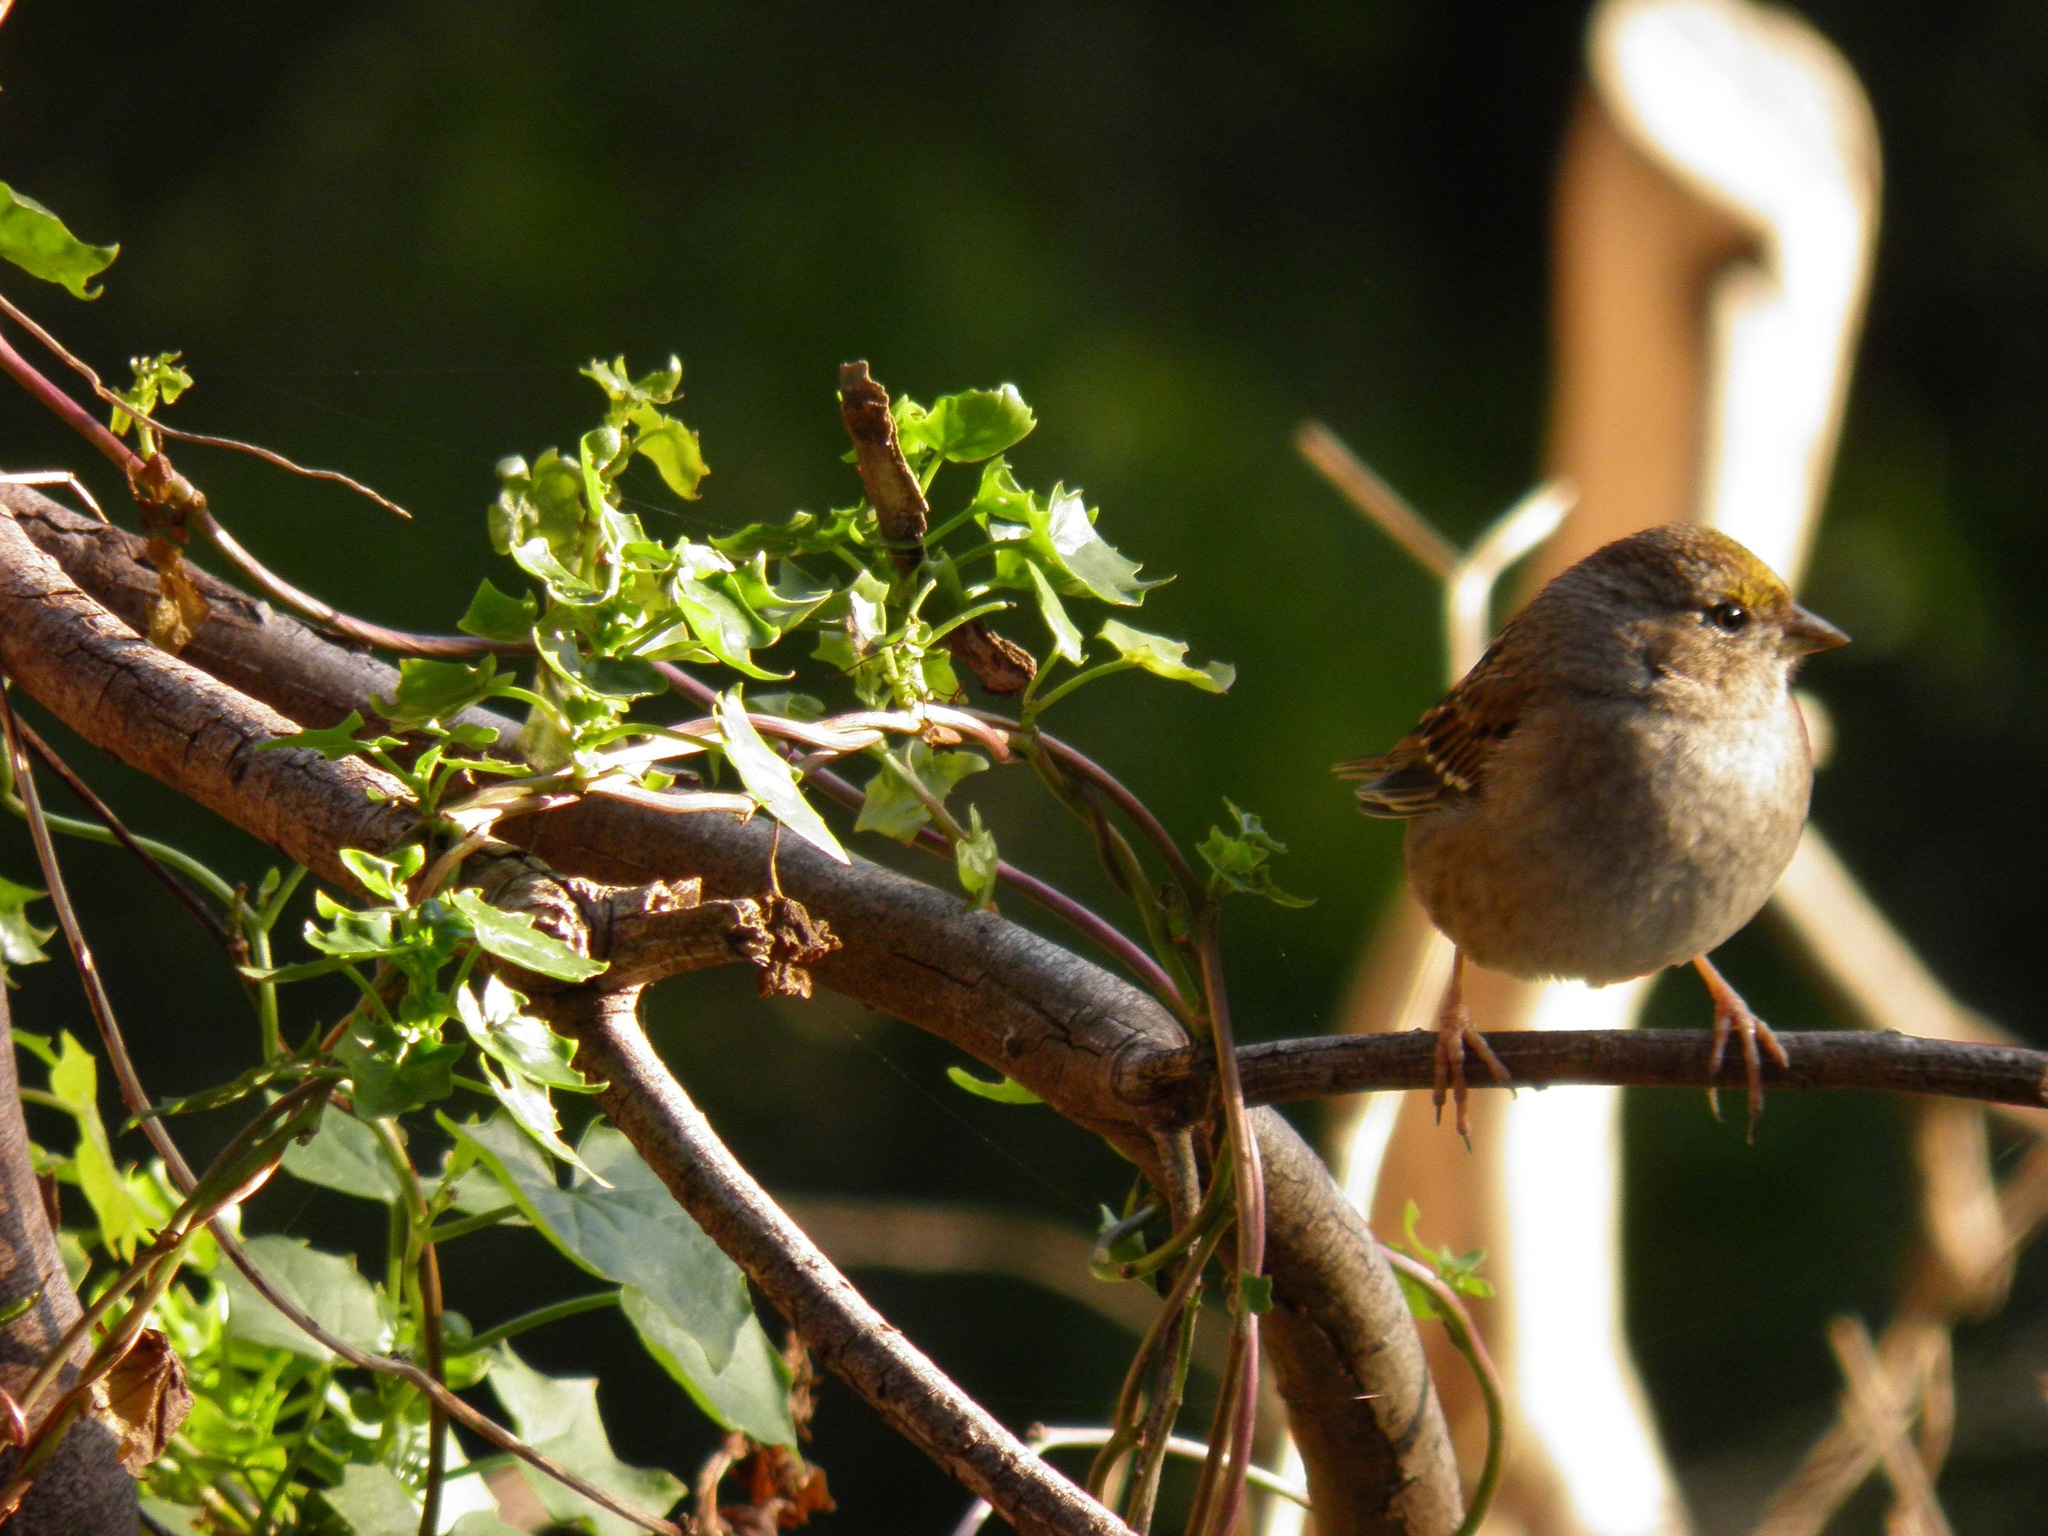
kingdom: Animalia
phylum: Chordata
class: Aves
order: Passeriformes
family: Passerellidae
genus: Zonotrichia
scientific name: Zonotrichia atricapilla
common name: Golden-crowned sparrow
